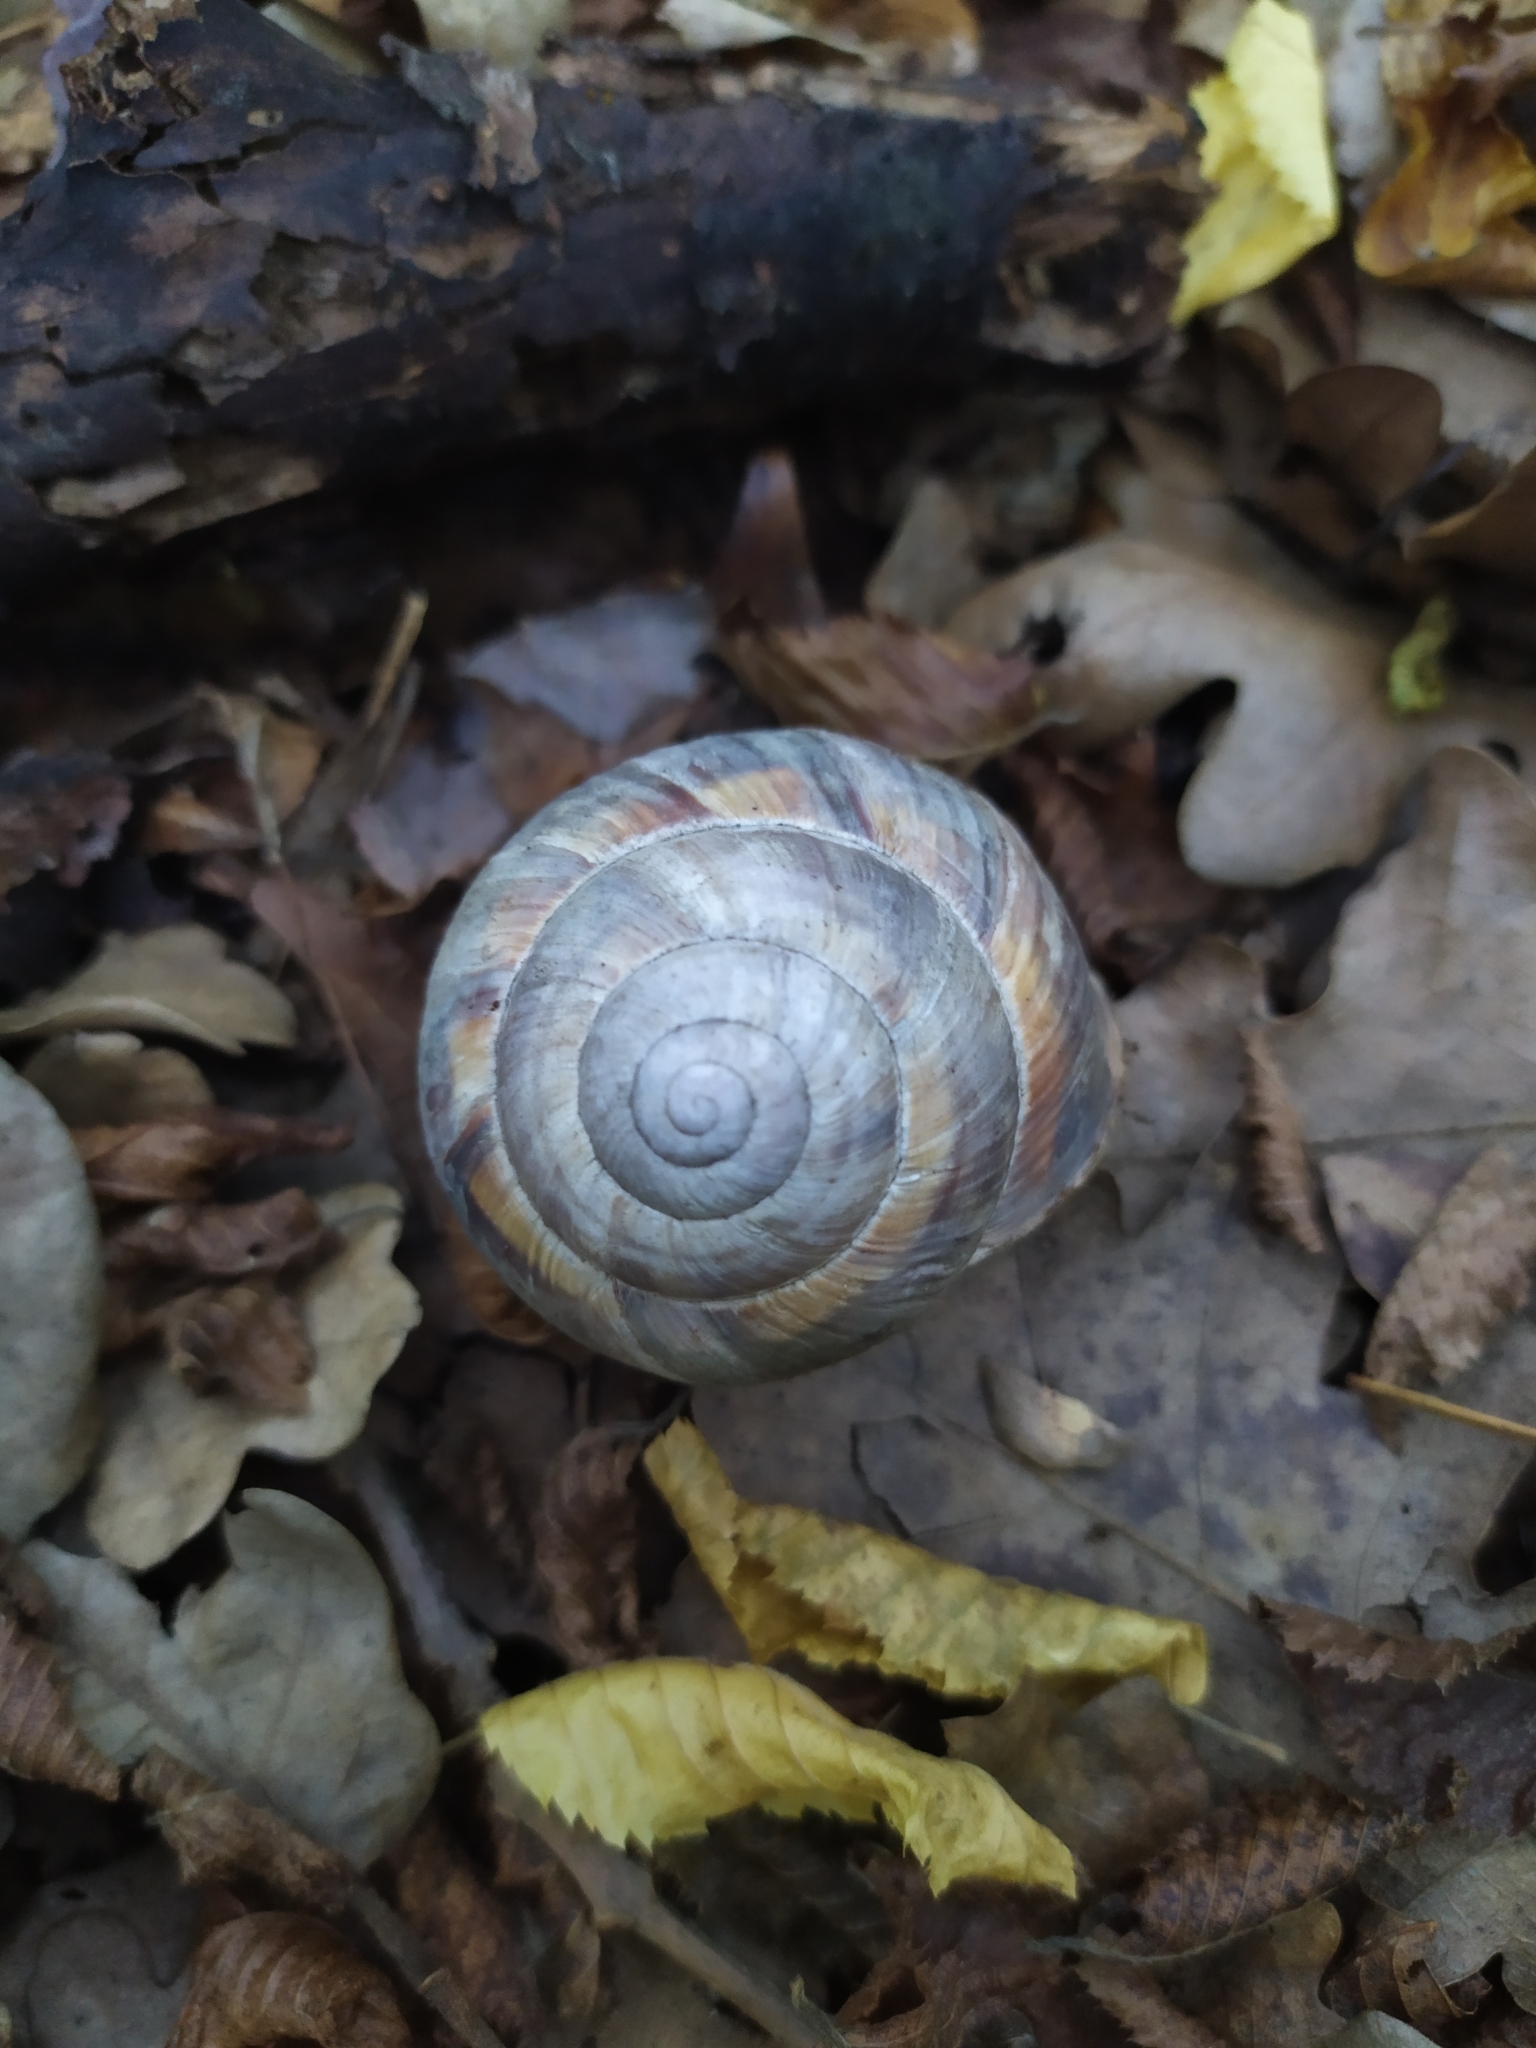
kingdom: Animalia
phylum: Mollusca
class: Gastropoda
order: Stylommatophora
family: Helicidae
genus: Helix
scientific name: Helix lucorum
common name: Turkish snail
